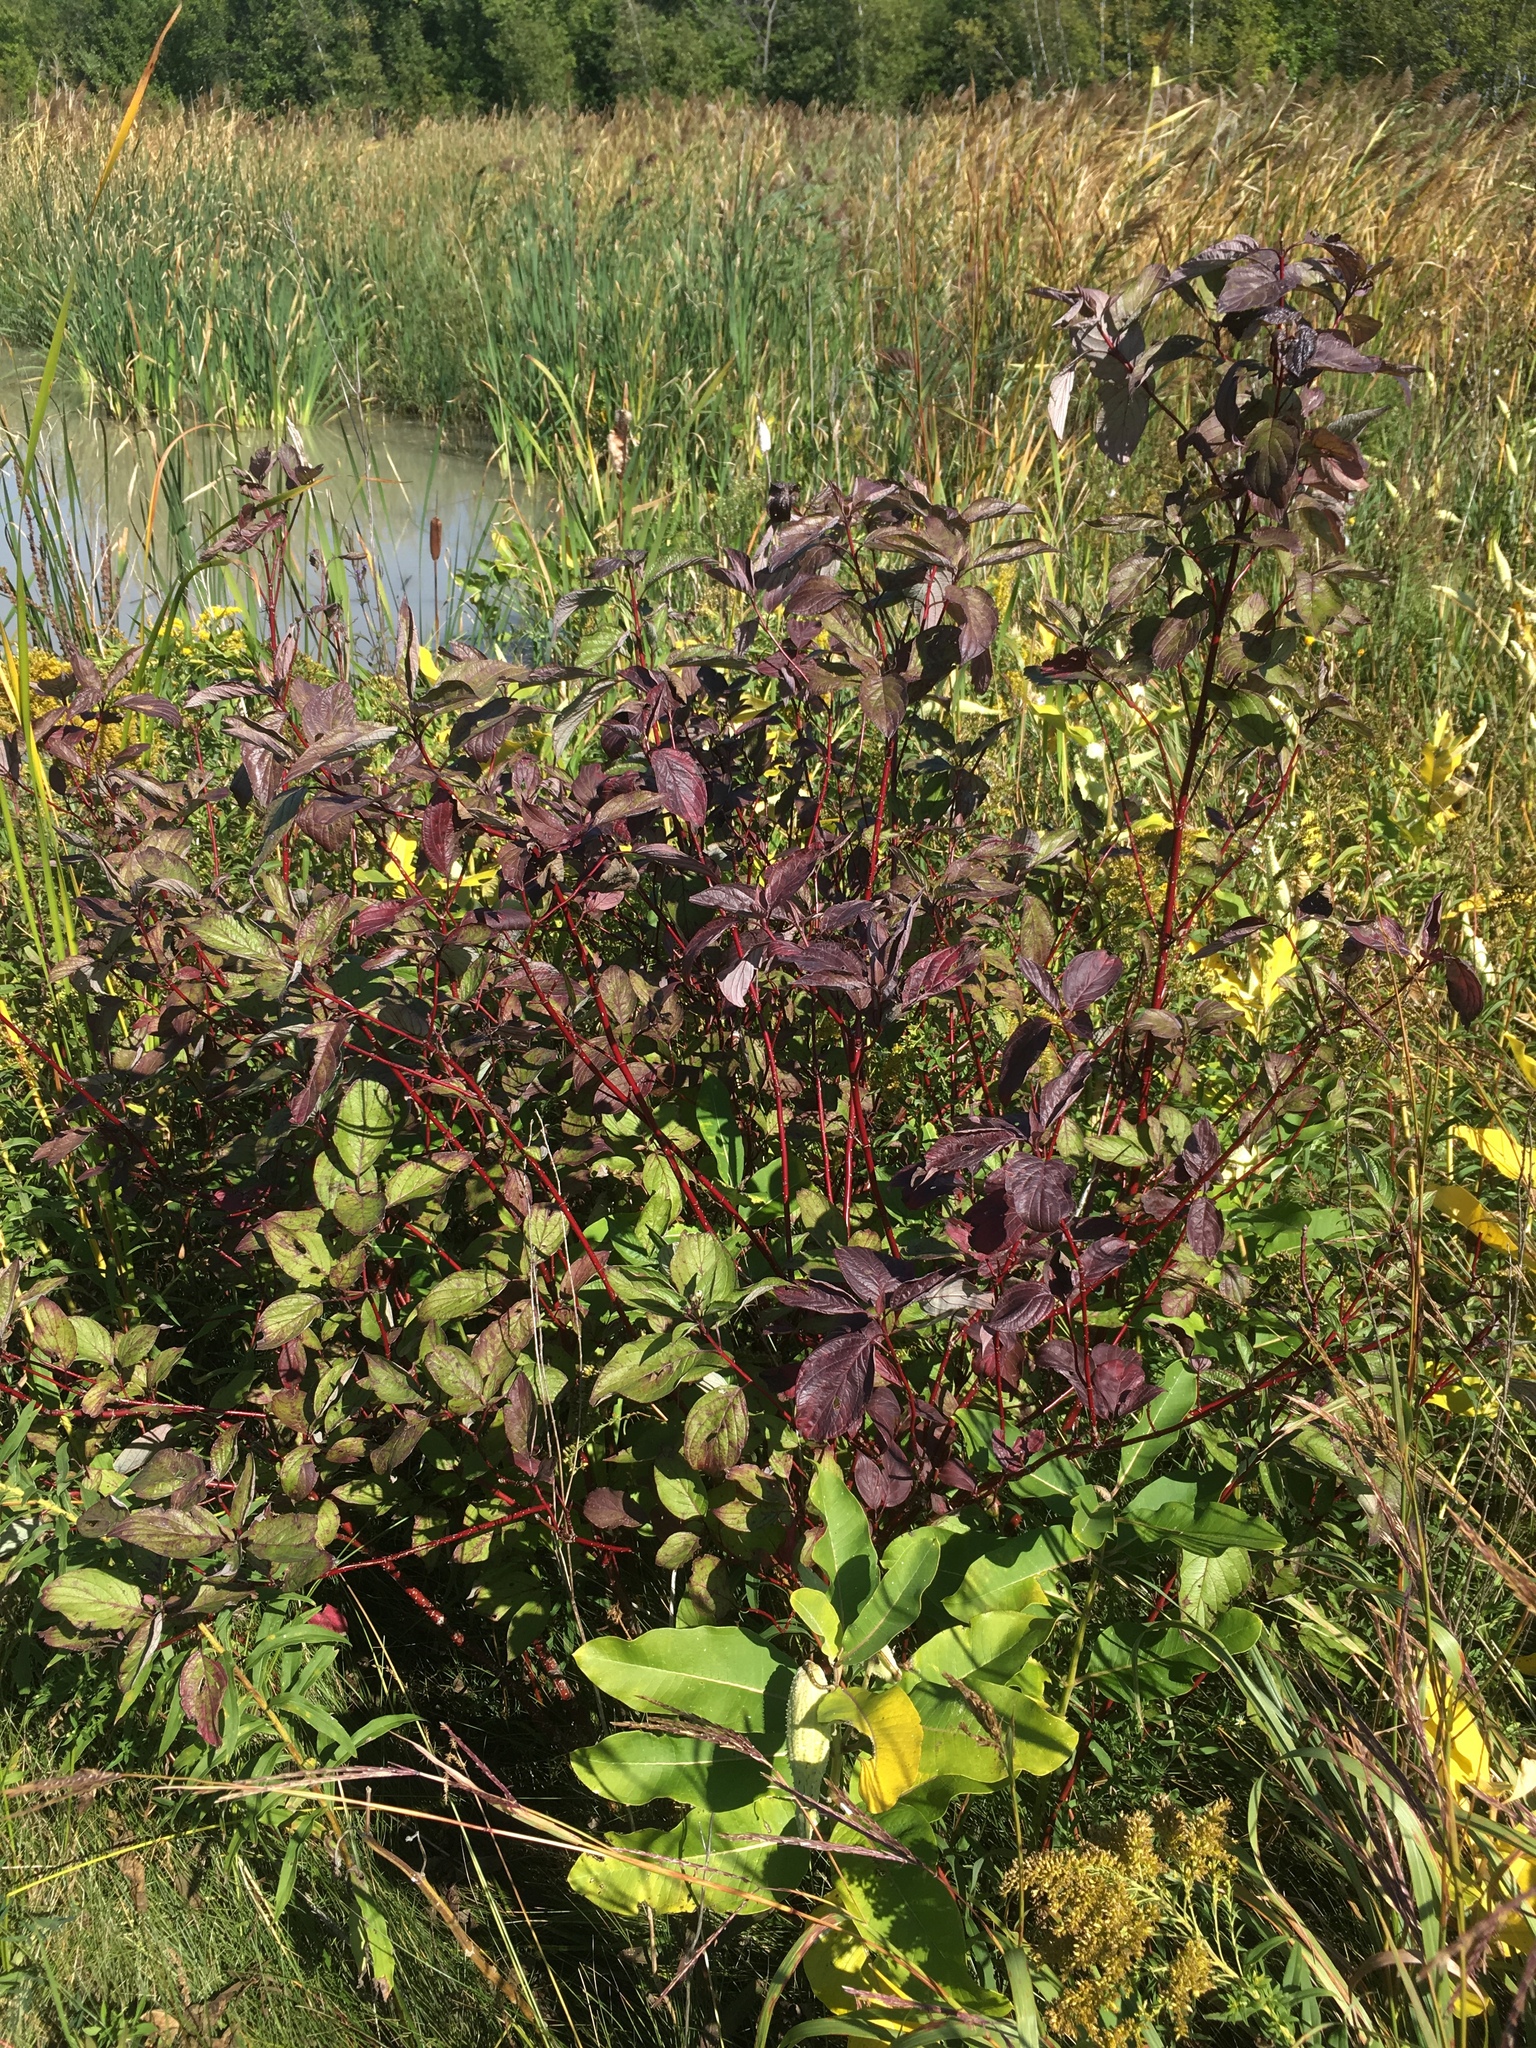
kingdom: Plantae
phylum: Tracheophyta
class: Magnoliopsida
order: Cornales
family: Cornaceae
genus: Cornus
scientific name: Cornus sericea
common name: Red-osier dogwood
